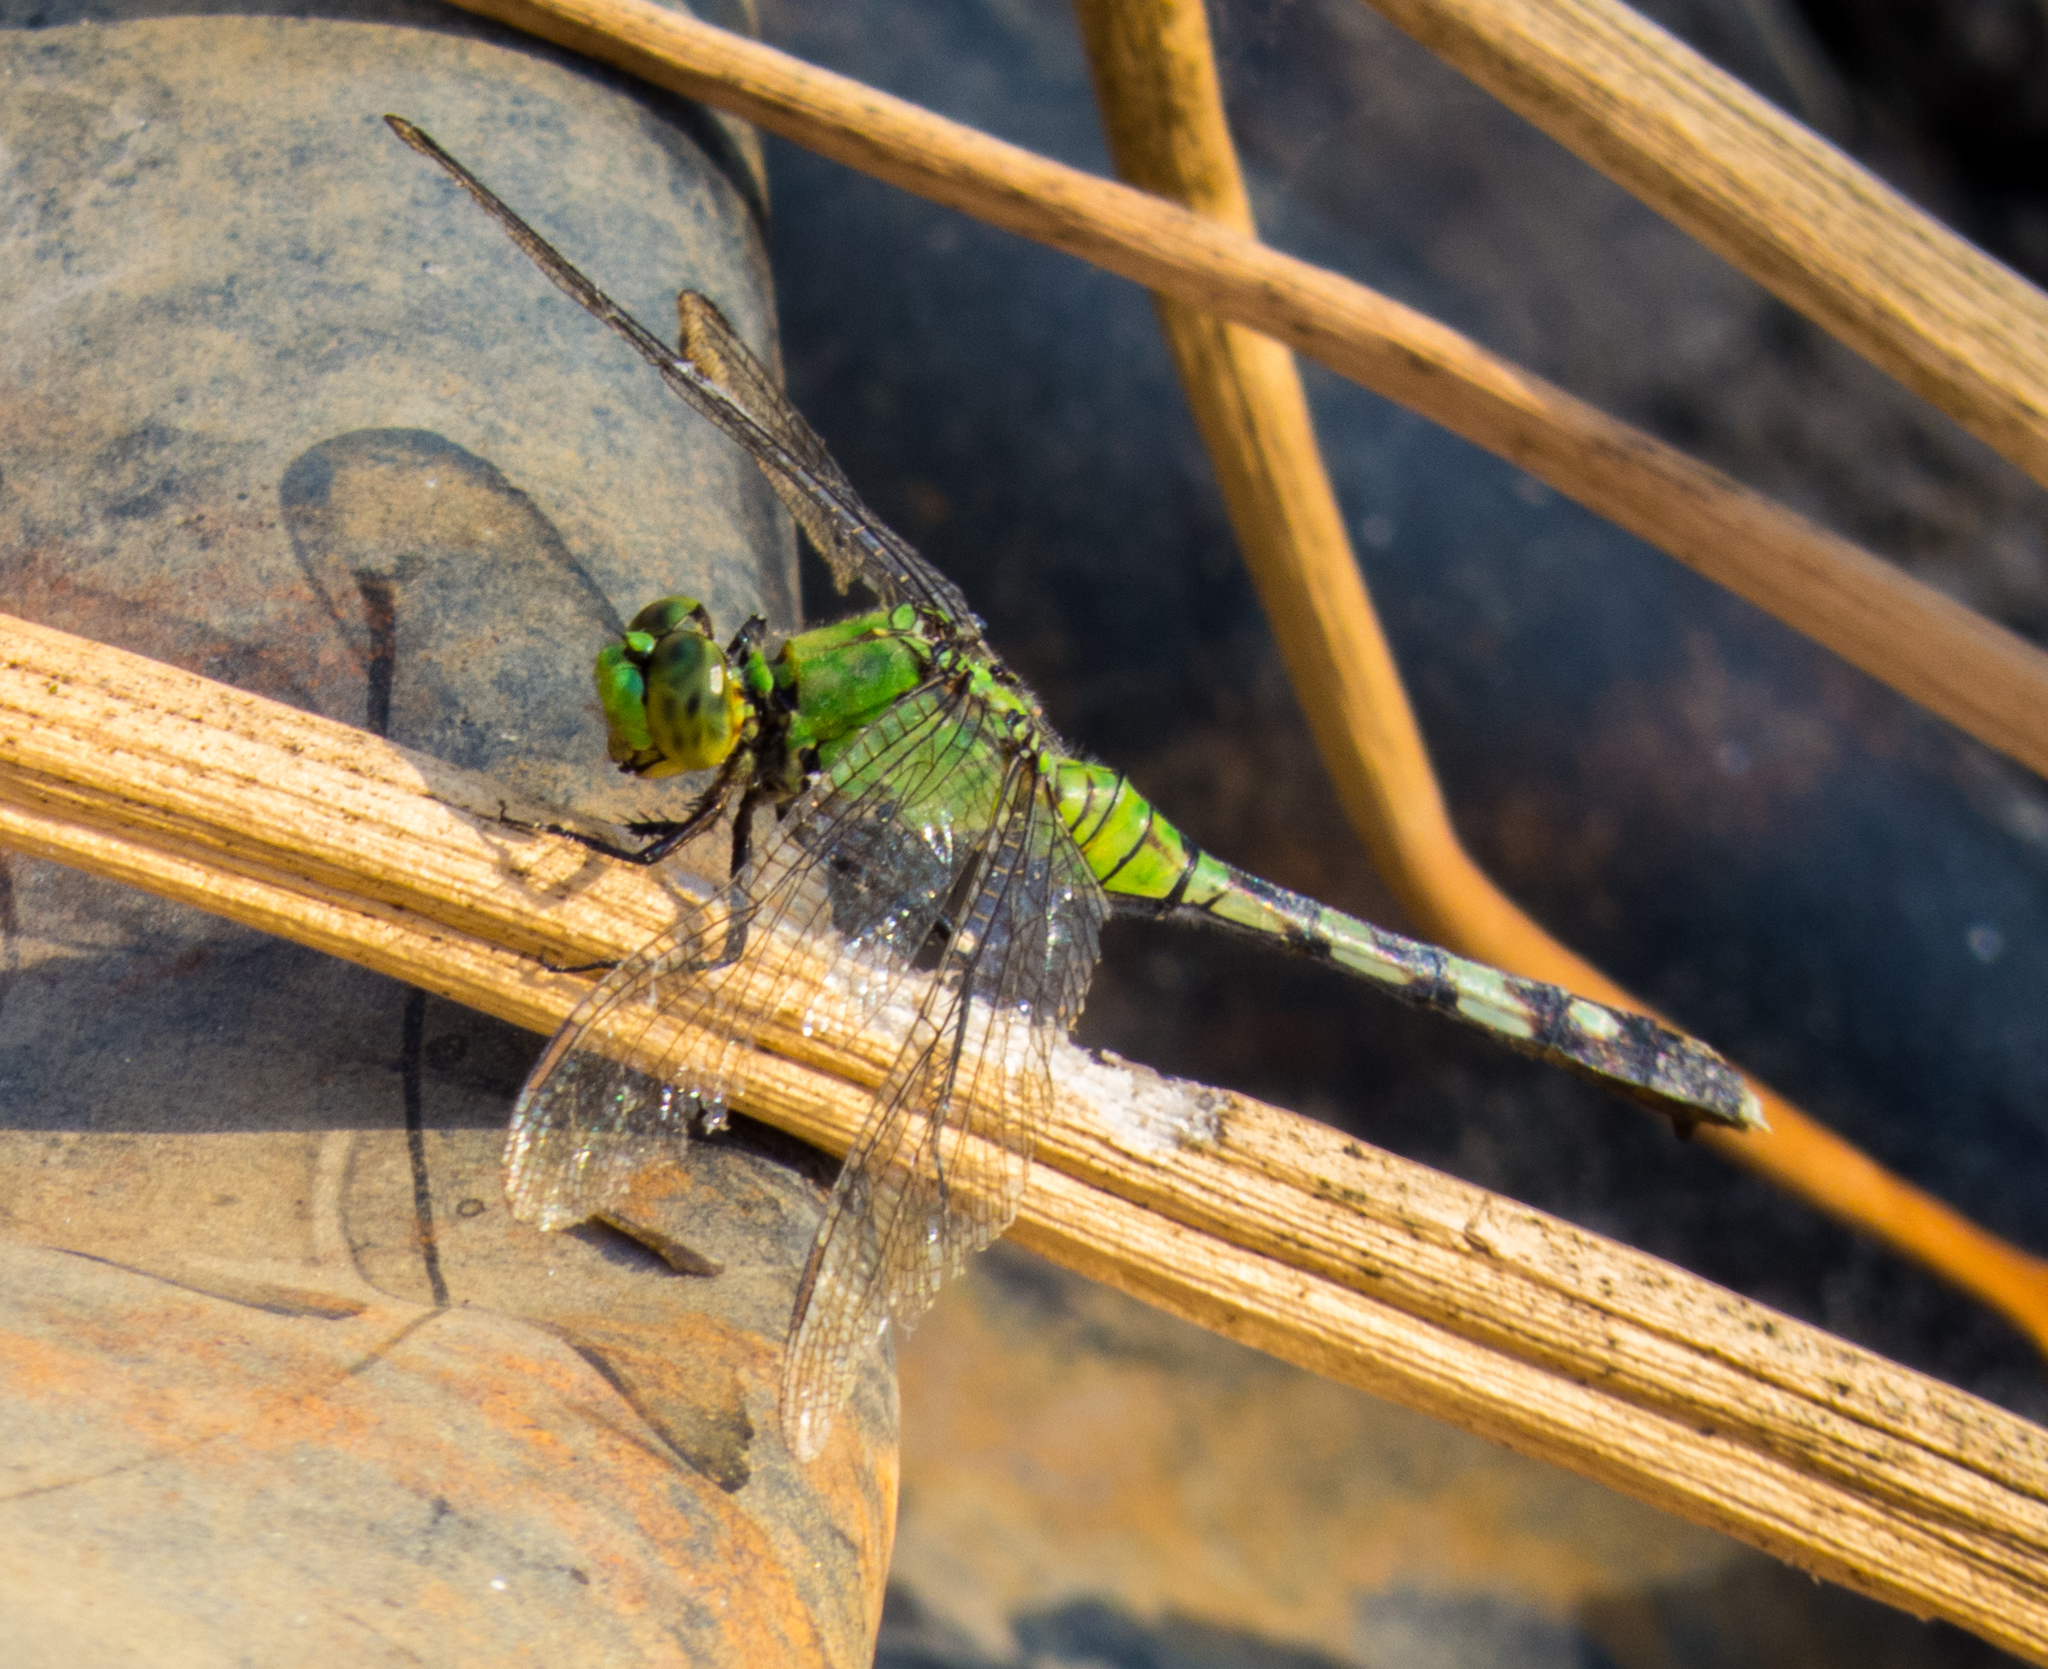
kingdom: Animalia
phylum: Arthropoda
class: Insecta
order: Odonata
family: Libellulidae
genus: Erythemis
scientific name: Erythemis simplicicollis
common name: Eastern pondhawk
